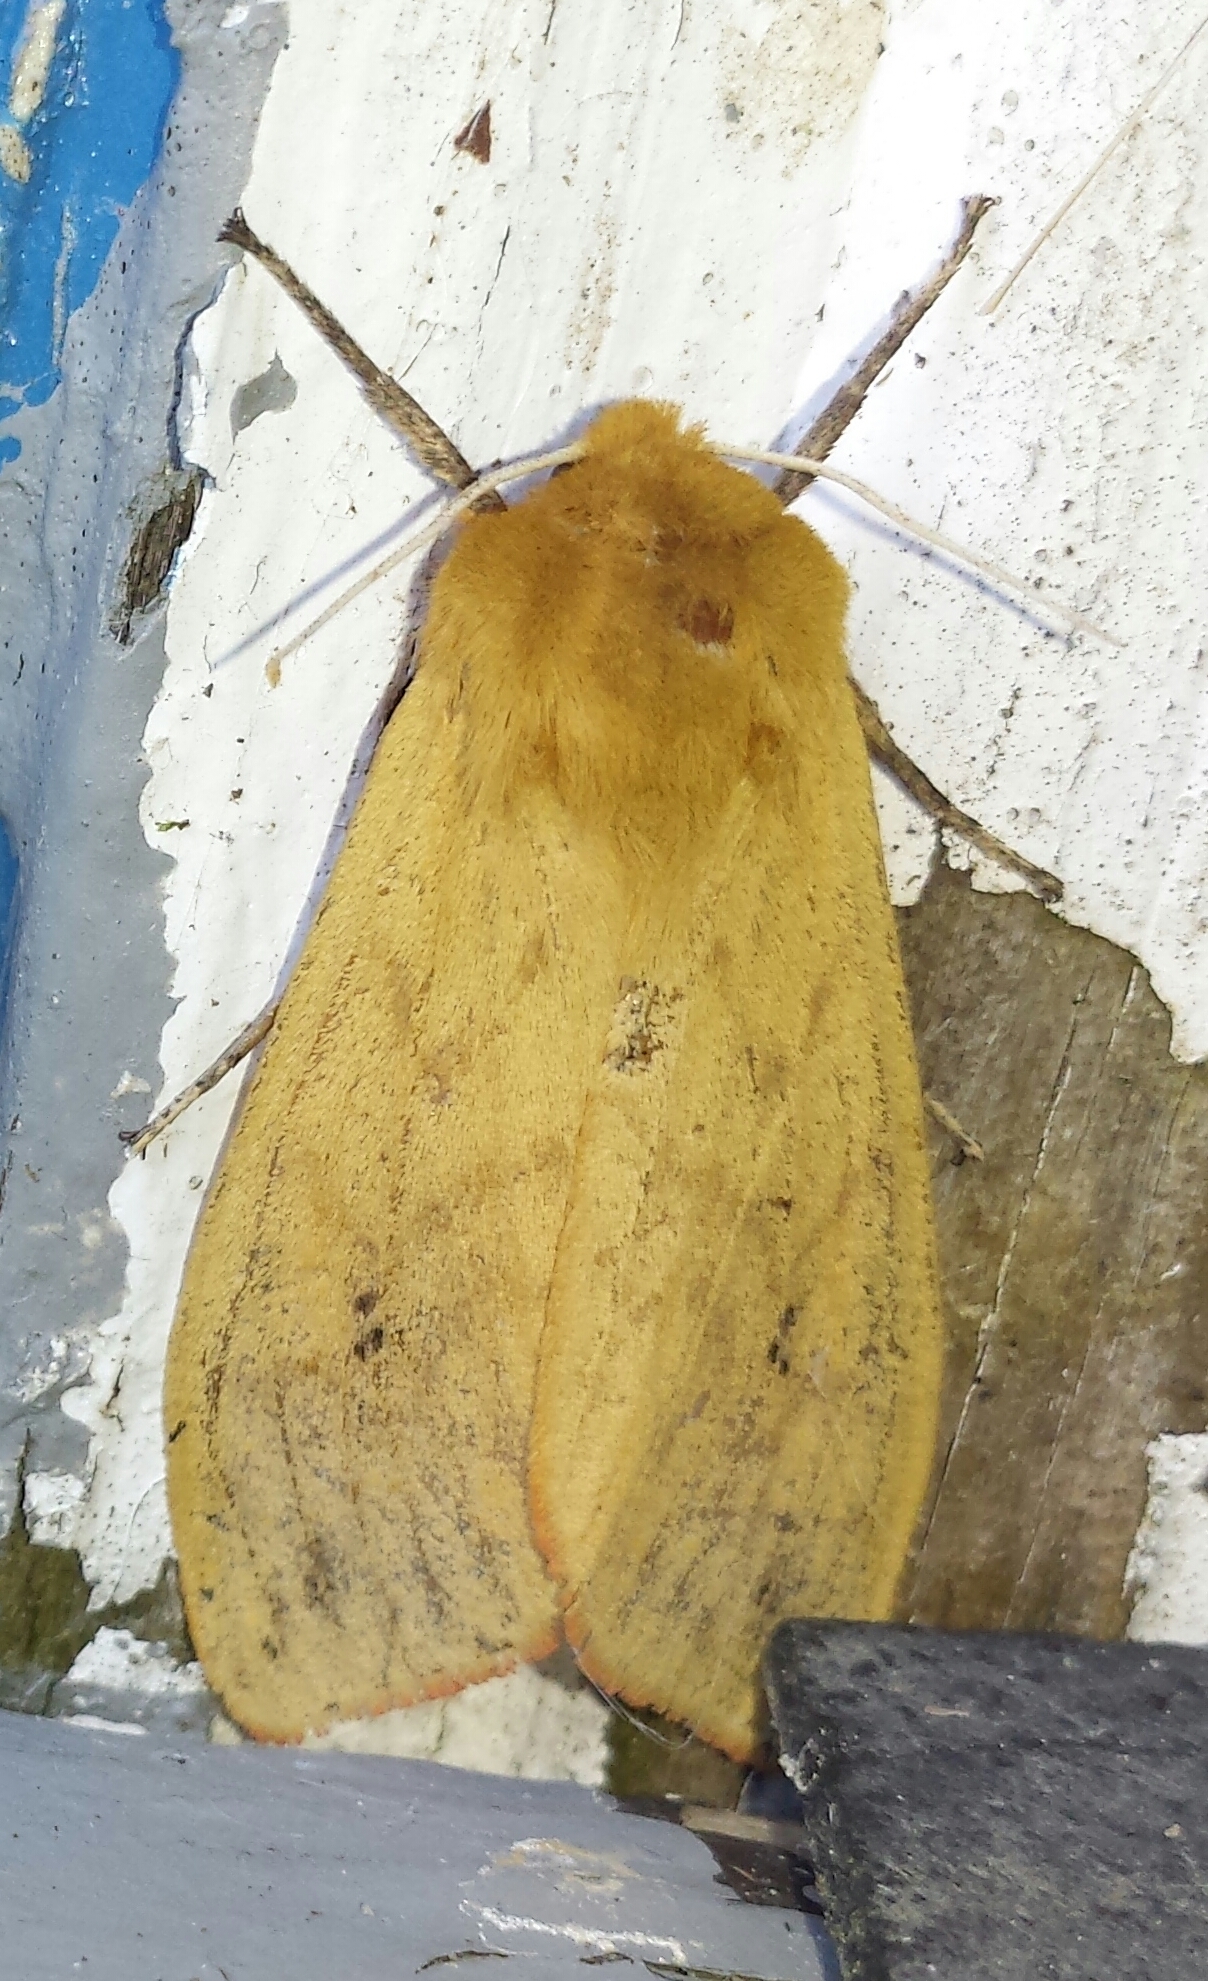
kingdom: Animalia
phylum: Arthropoda
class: Insecta
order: Lepidoptera
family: Erebidae
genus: Pyrrharctia
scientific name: Pyrrharctia isabella
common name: Isabella tiger moth
